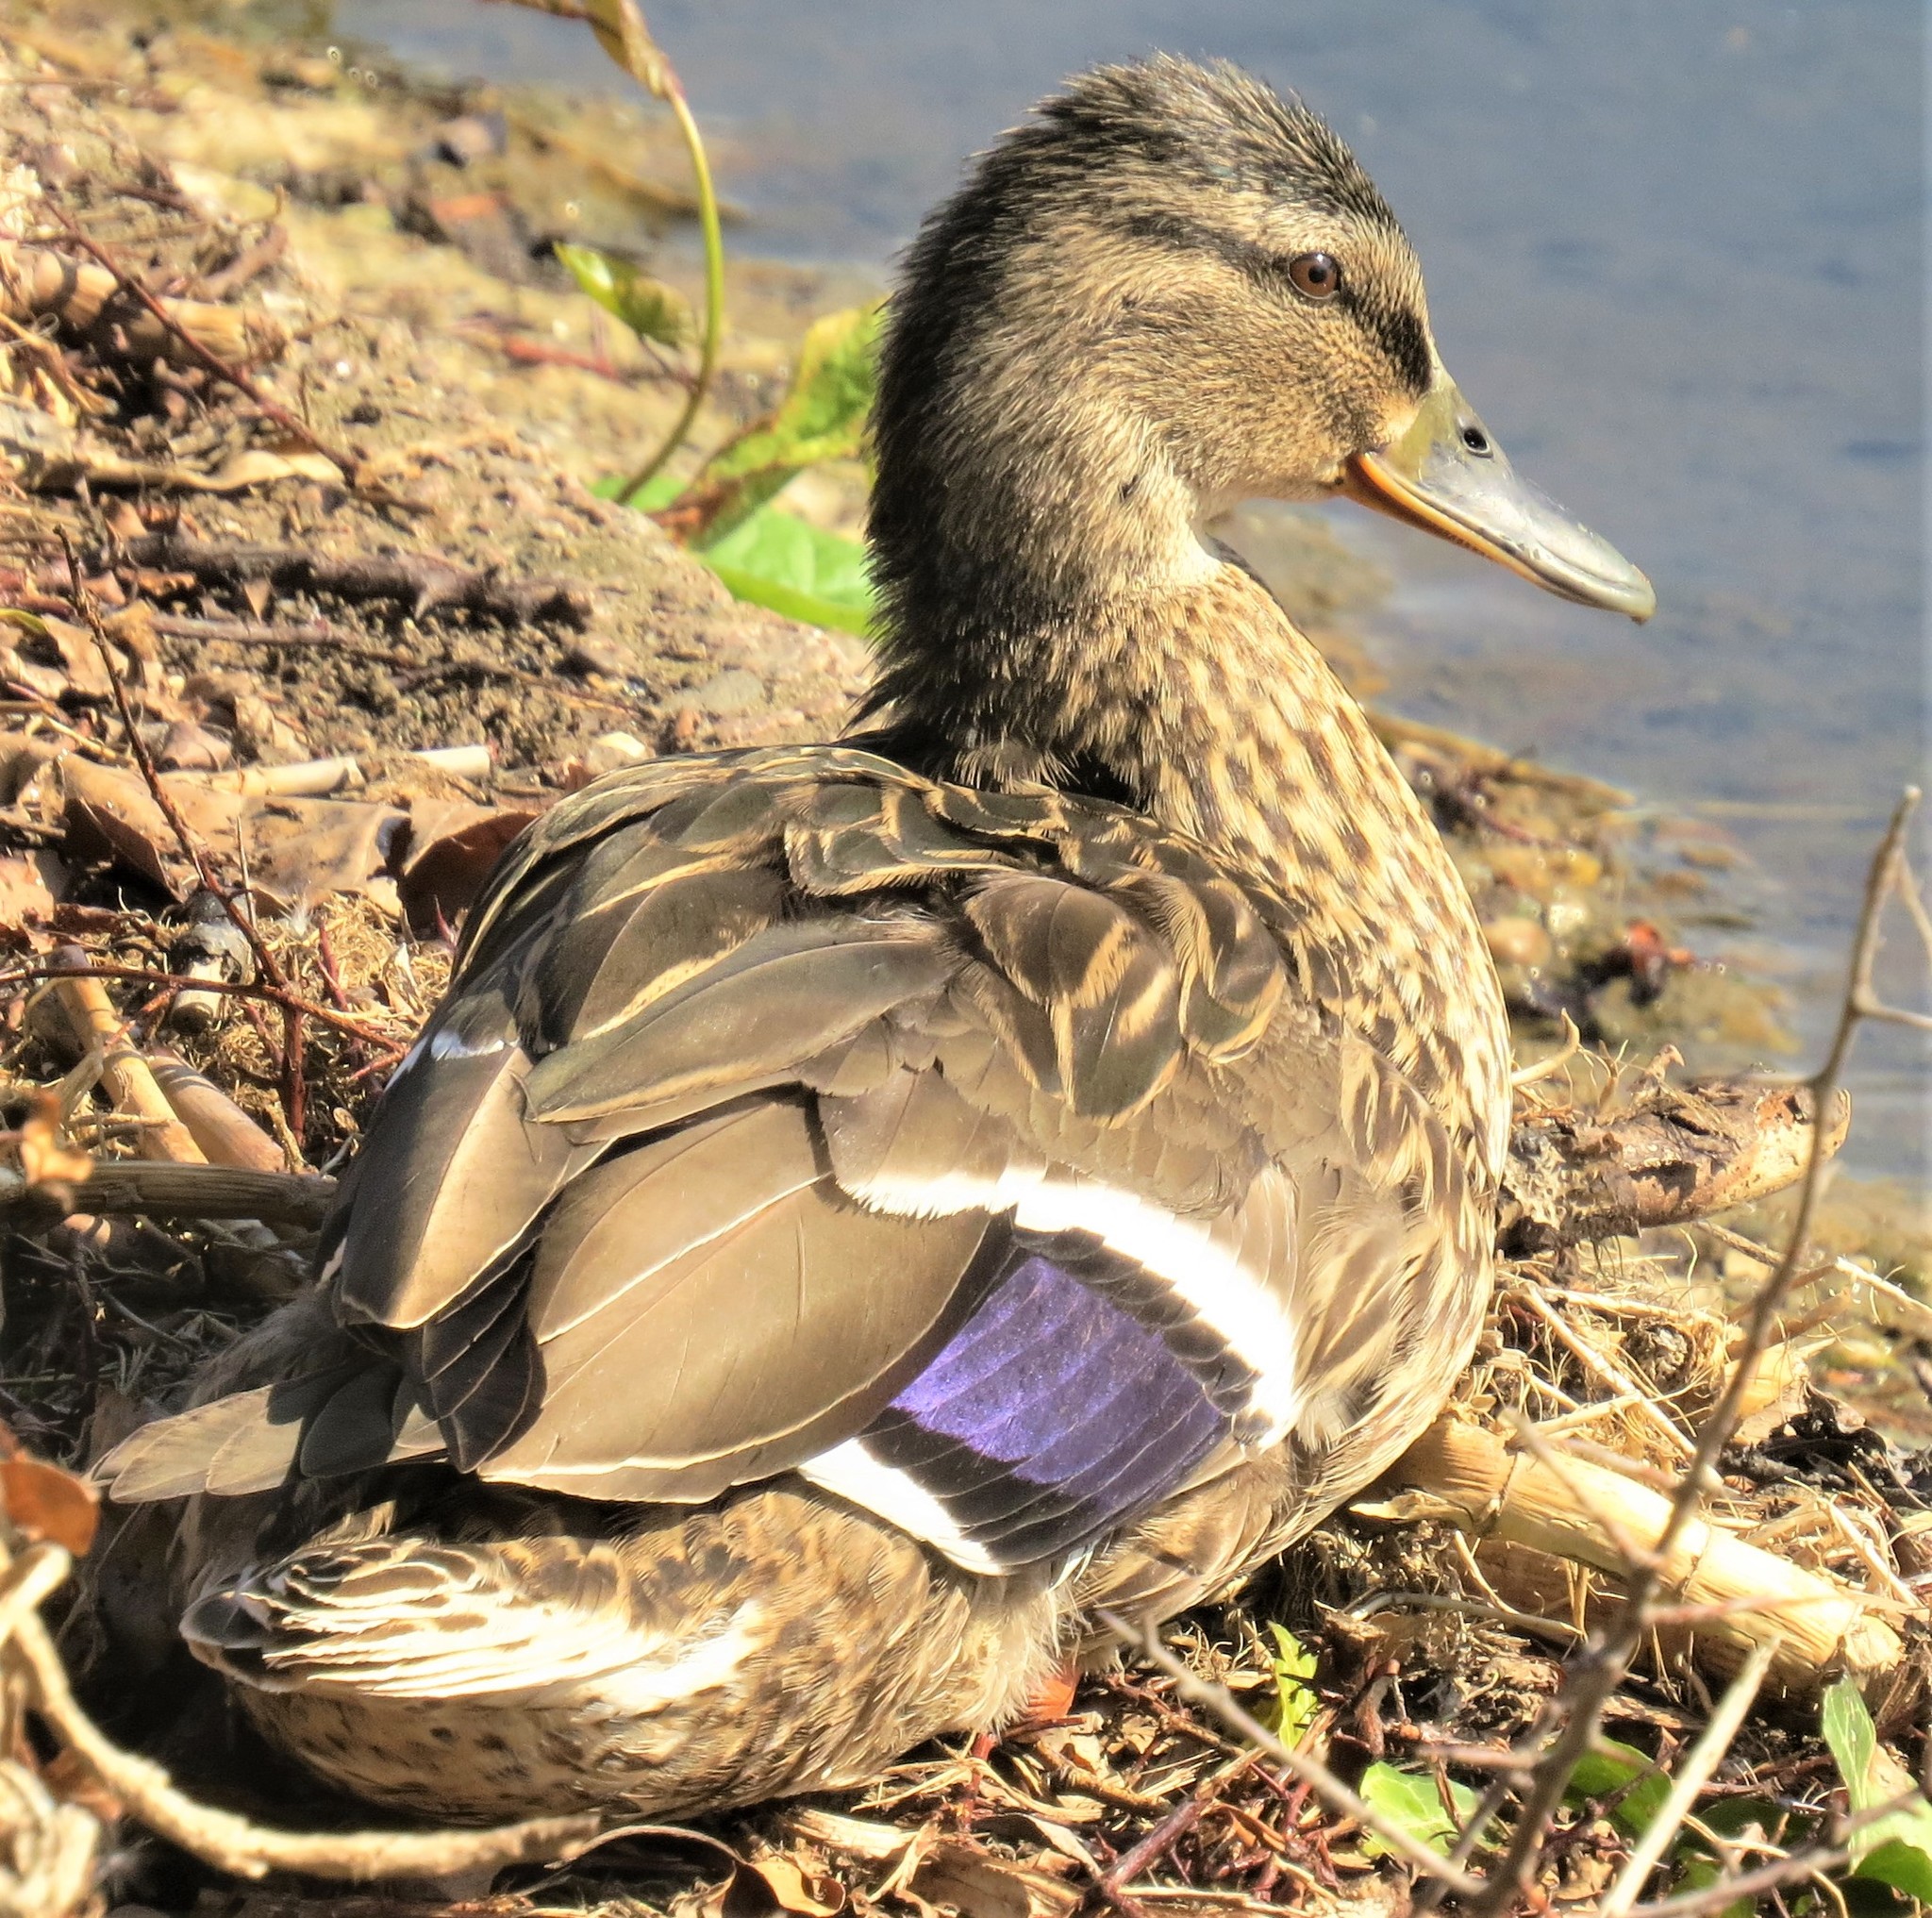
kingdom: Animalia
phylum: Chordata
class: Aves
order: Anseriformes
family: Anatidae
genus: Anas
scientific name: Anas platyrhynchos
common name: Mallard
